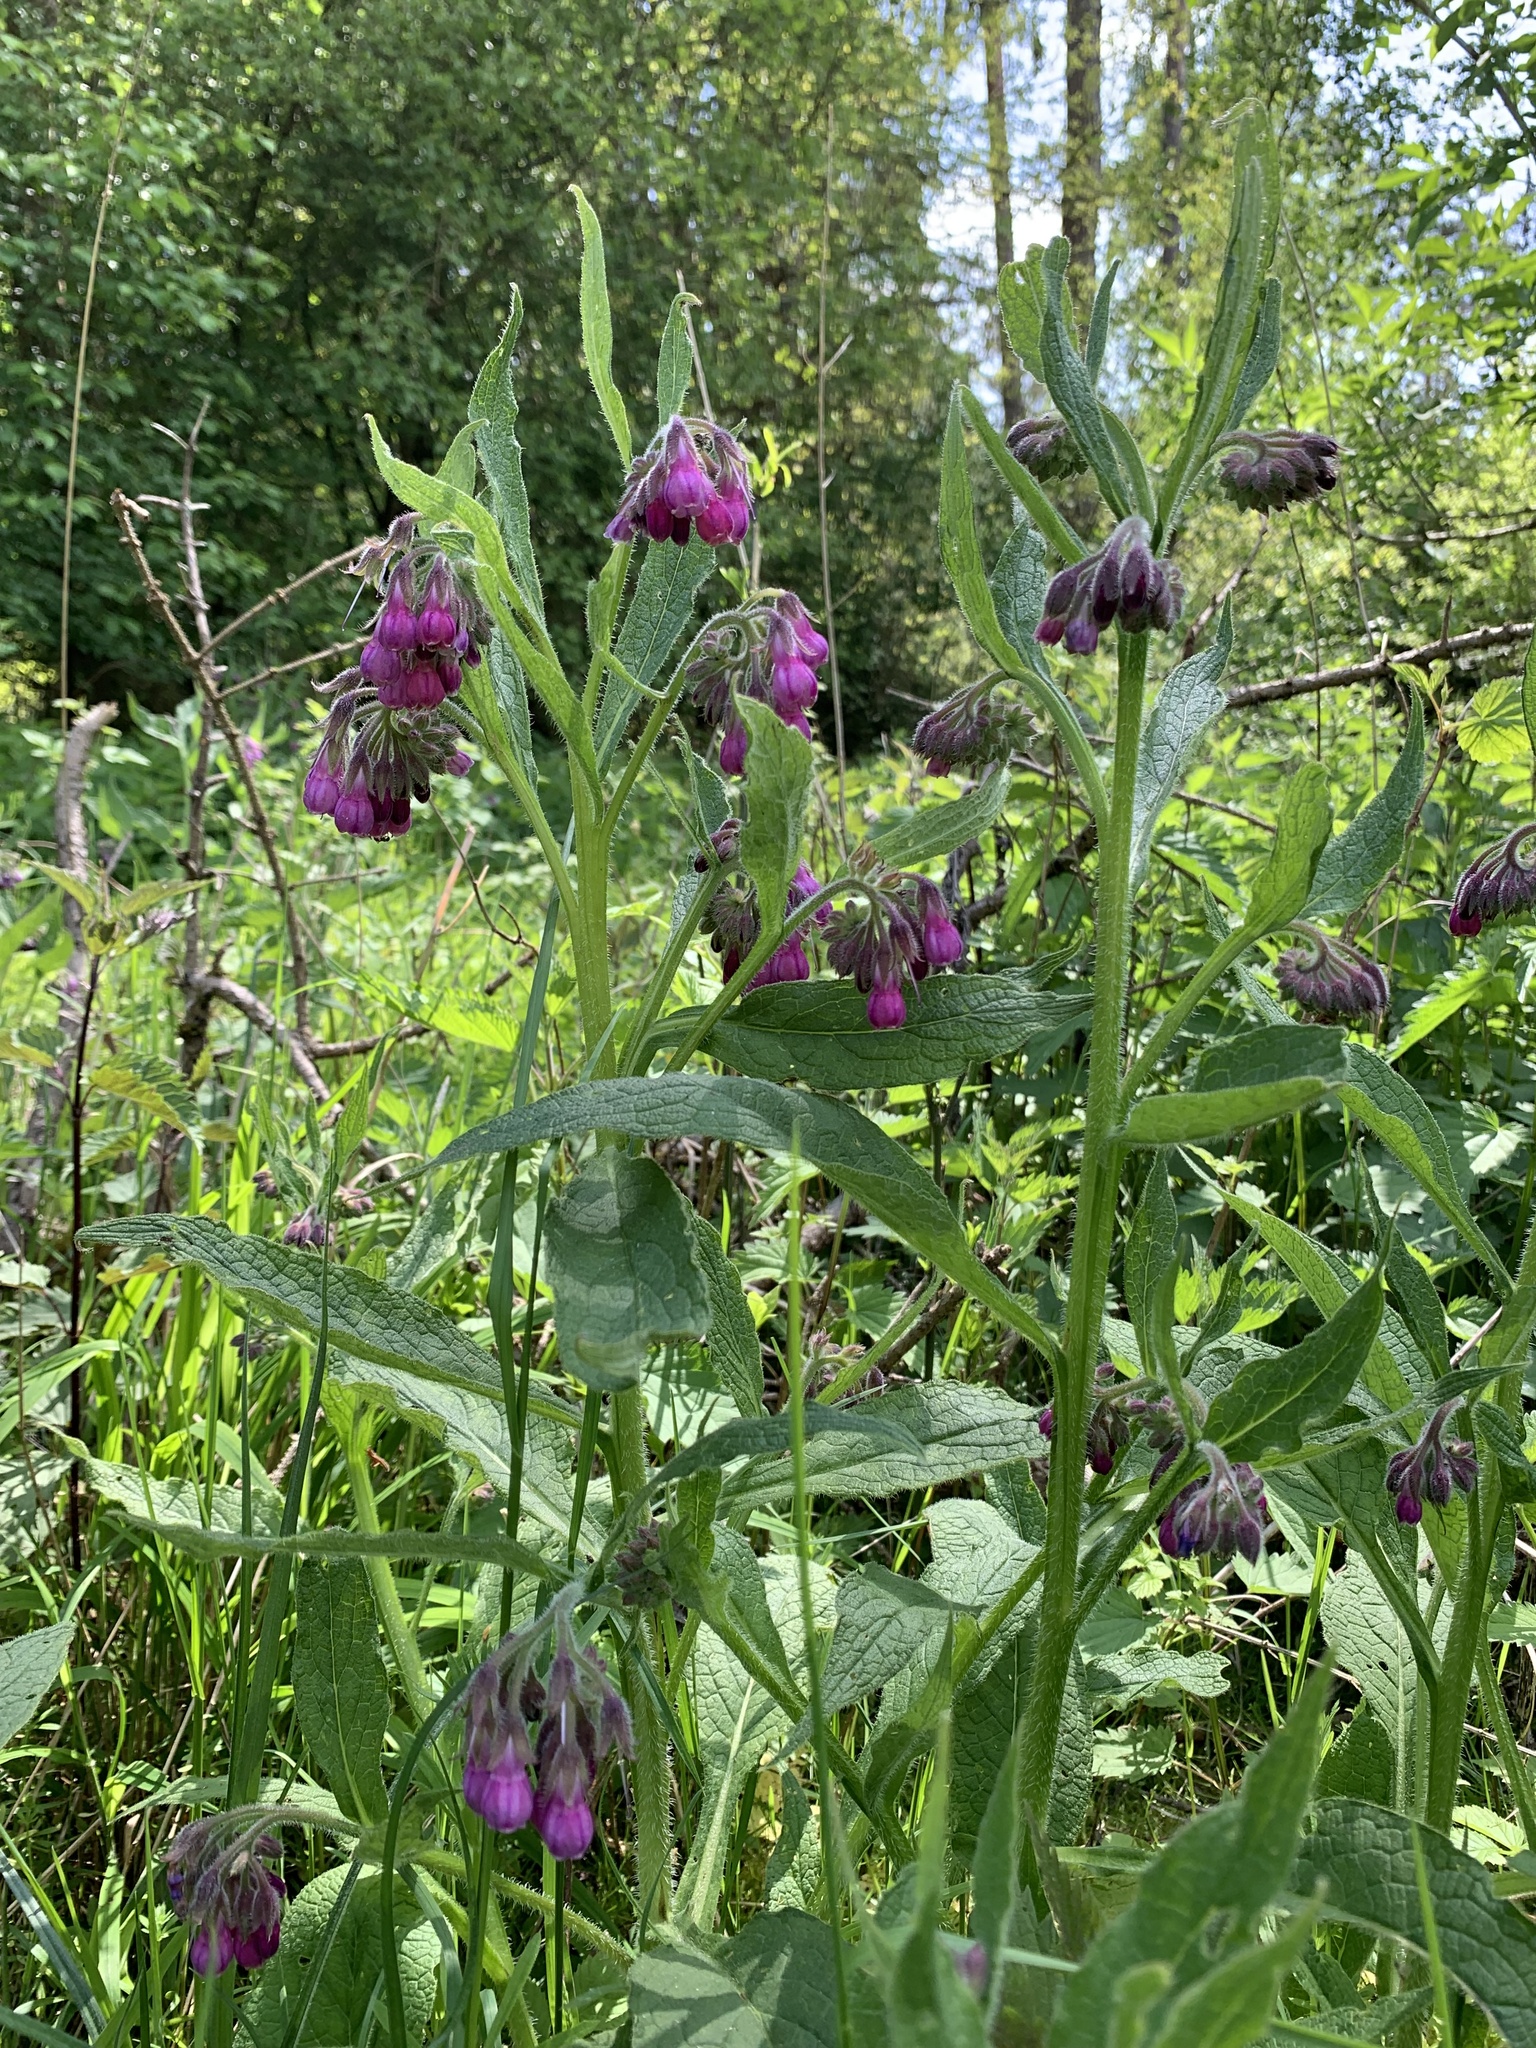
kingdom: Plantae
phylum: Tracheophyta
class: Magnoliopsida
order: Boraginales
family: Boraginaceae
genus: Symphytum
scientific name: Symphytum officinale
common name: Common comfrey
